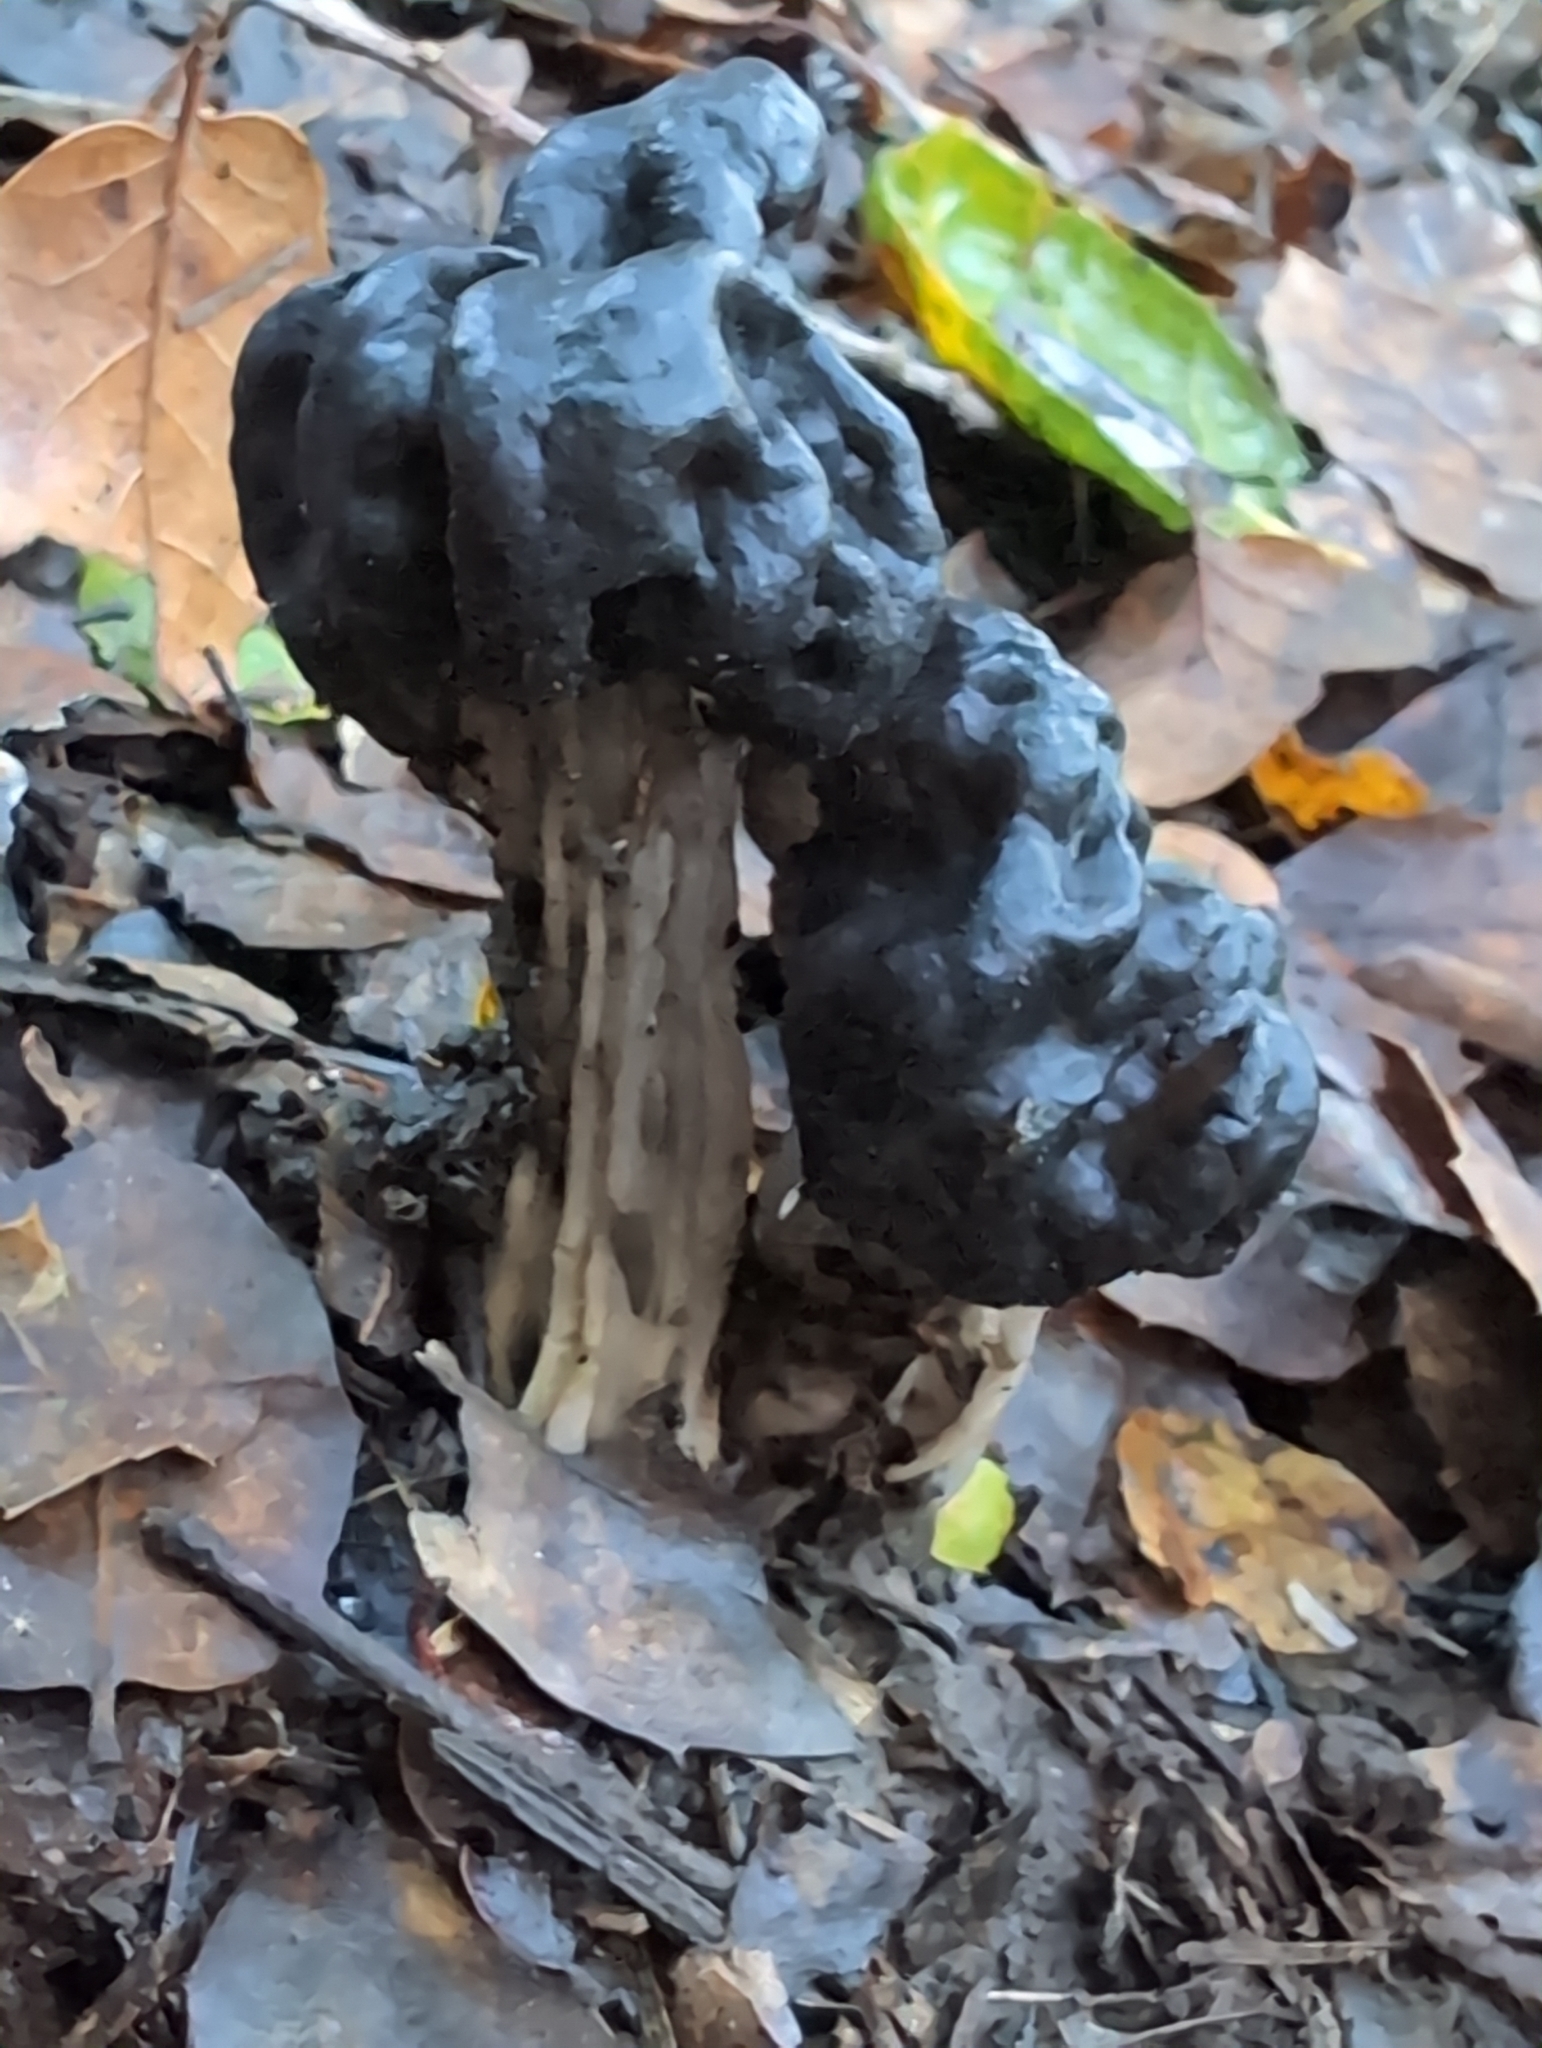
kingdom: Fungi
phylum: Ascomycota
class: Pezizomycetes
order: Pezizales
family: Helvellaceae
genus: Helvella
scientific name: Helvella dryophila
